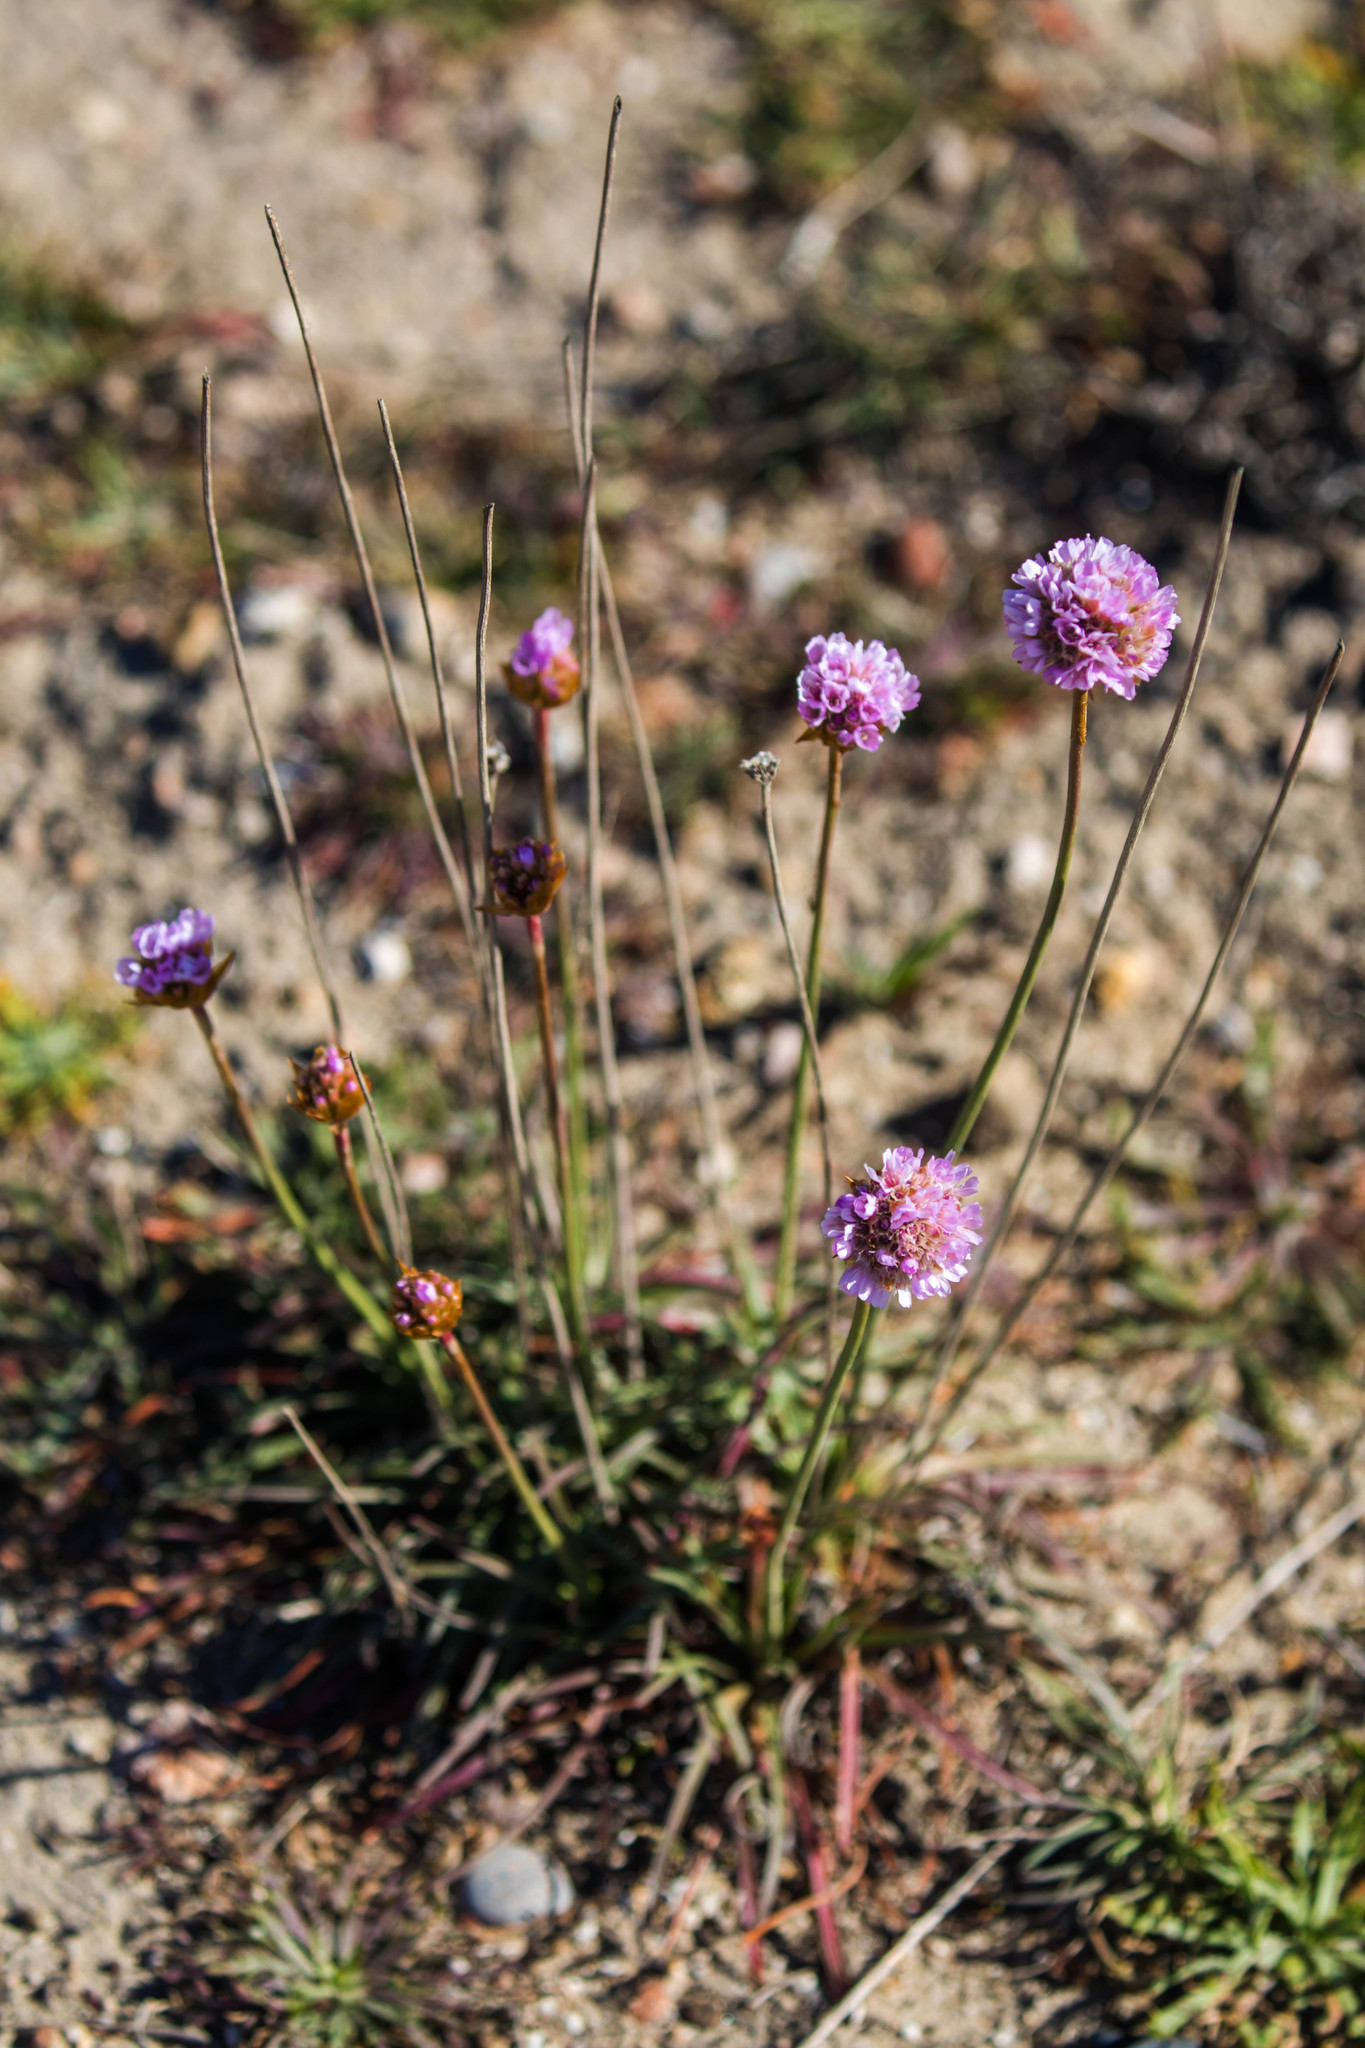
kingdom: Plantae
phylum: Tracheophyta
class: Magnoliopsida
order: Caryophyllales
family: Plumbaginaceae
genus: Armeria
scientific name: Armeria maritima
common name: Thrift
